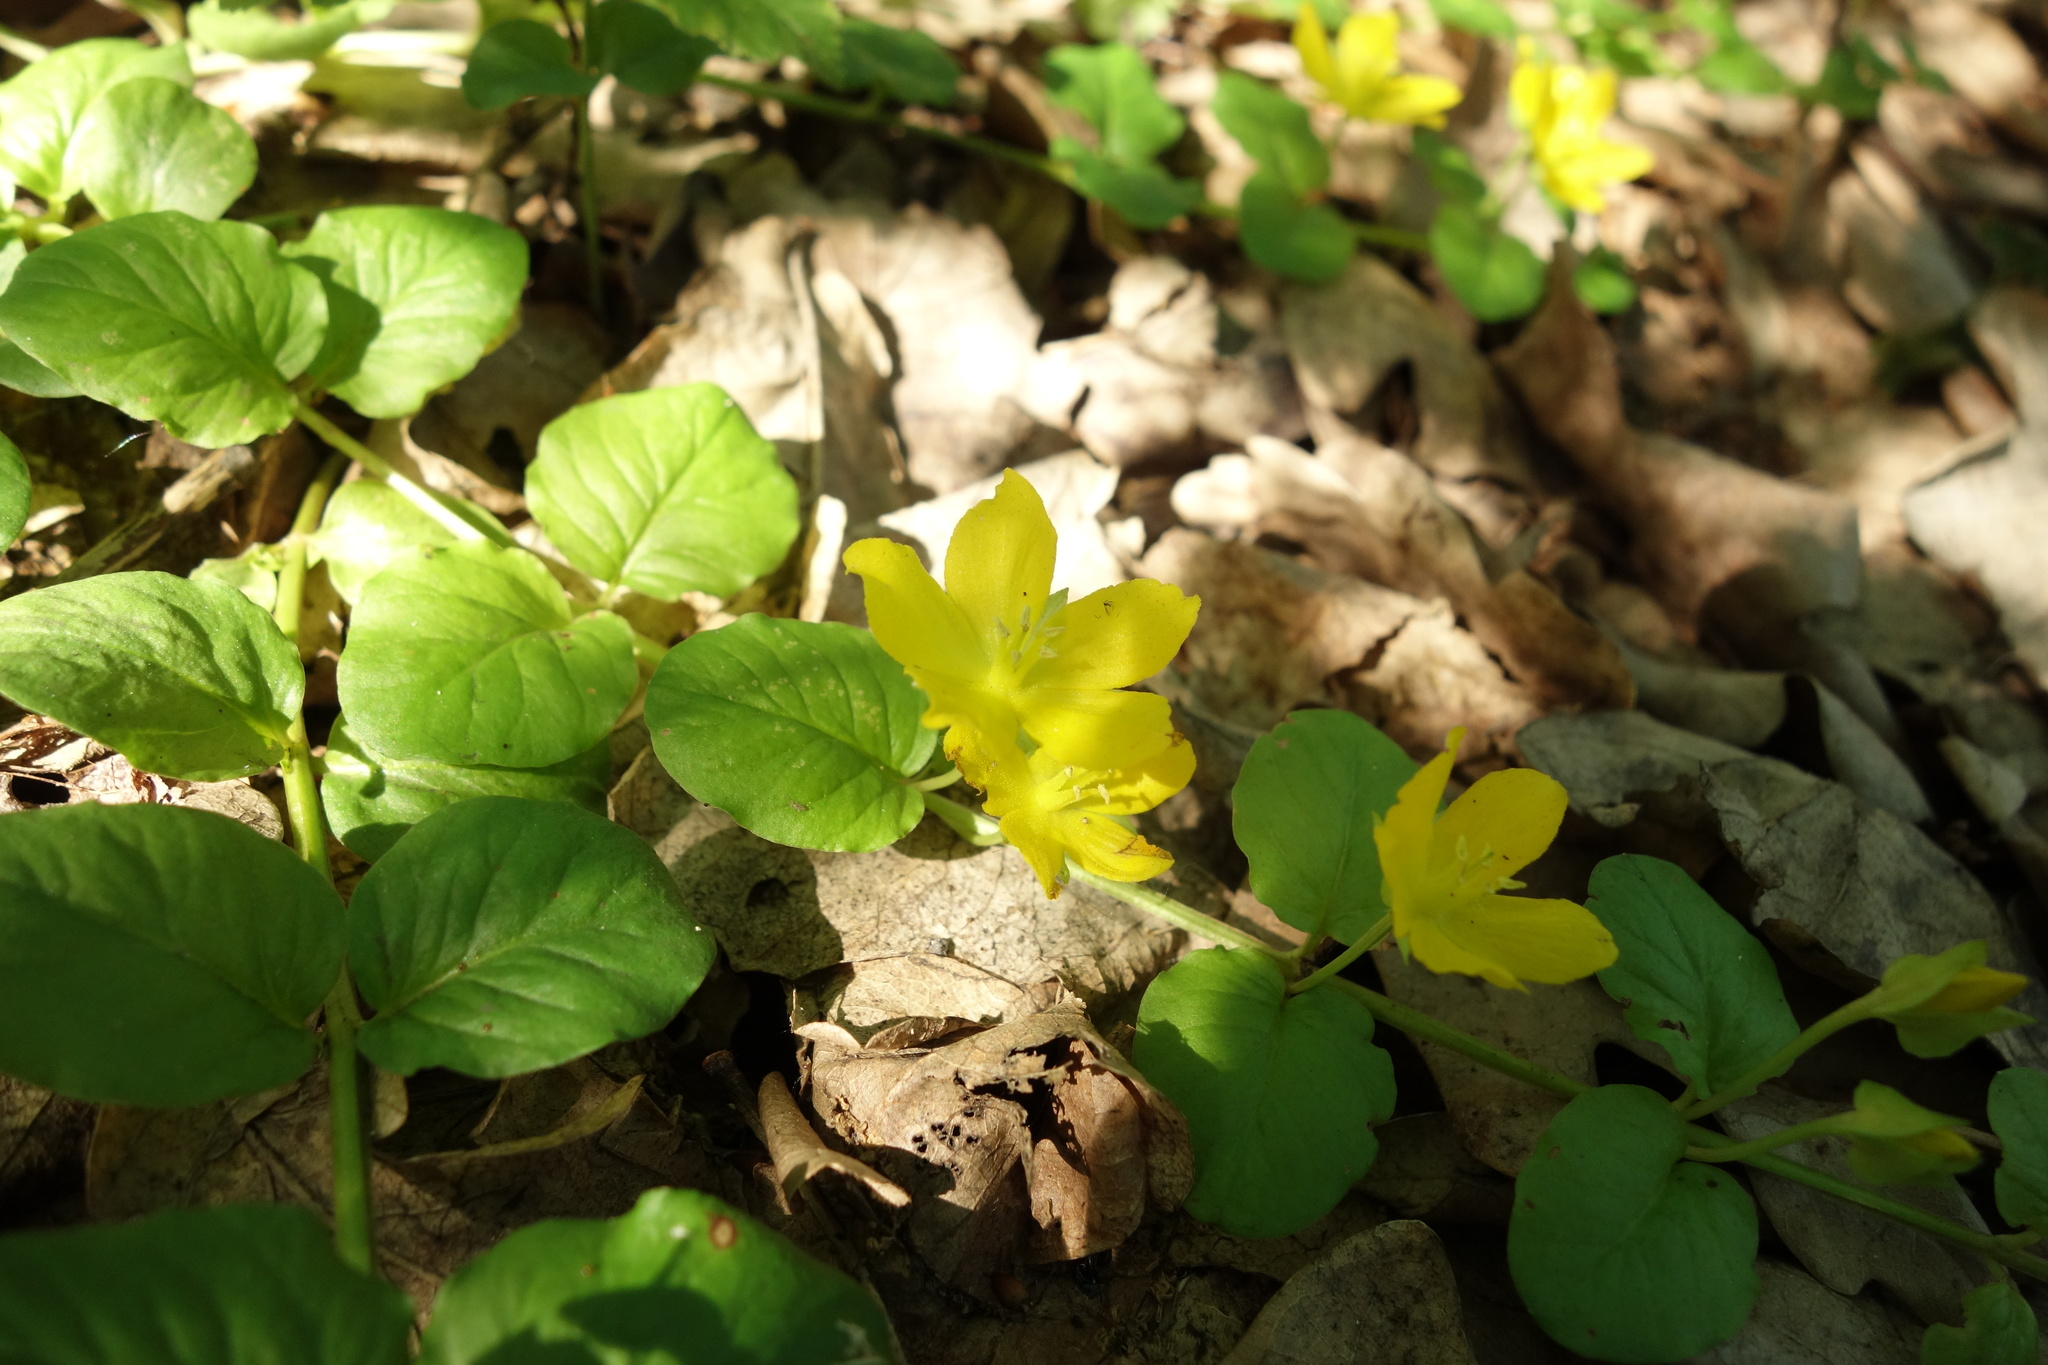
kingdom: Plantae
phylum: Tracheophyta
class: Magnoliopsida
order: Ericales
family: Primulaceae
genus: Lysimachia
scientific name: Lysimachia nummularia
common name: Moneywort
